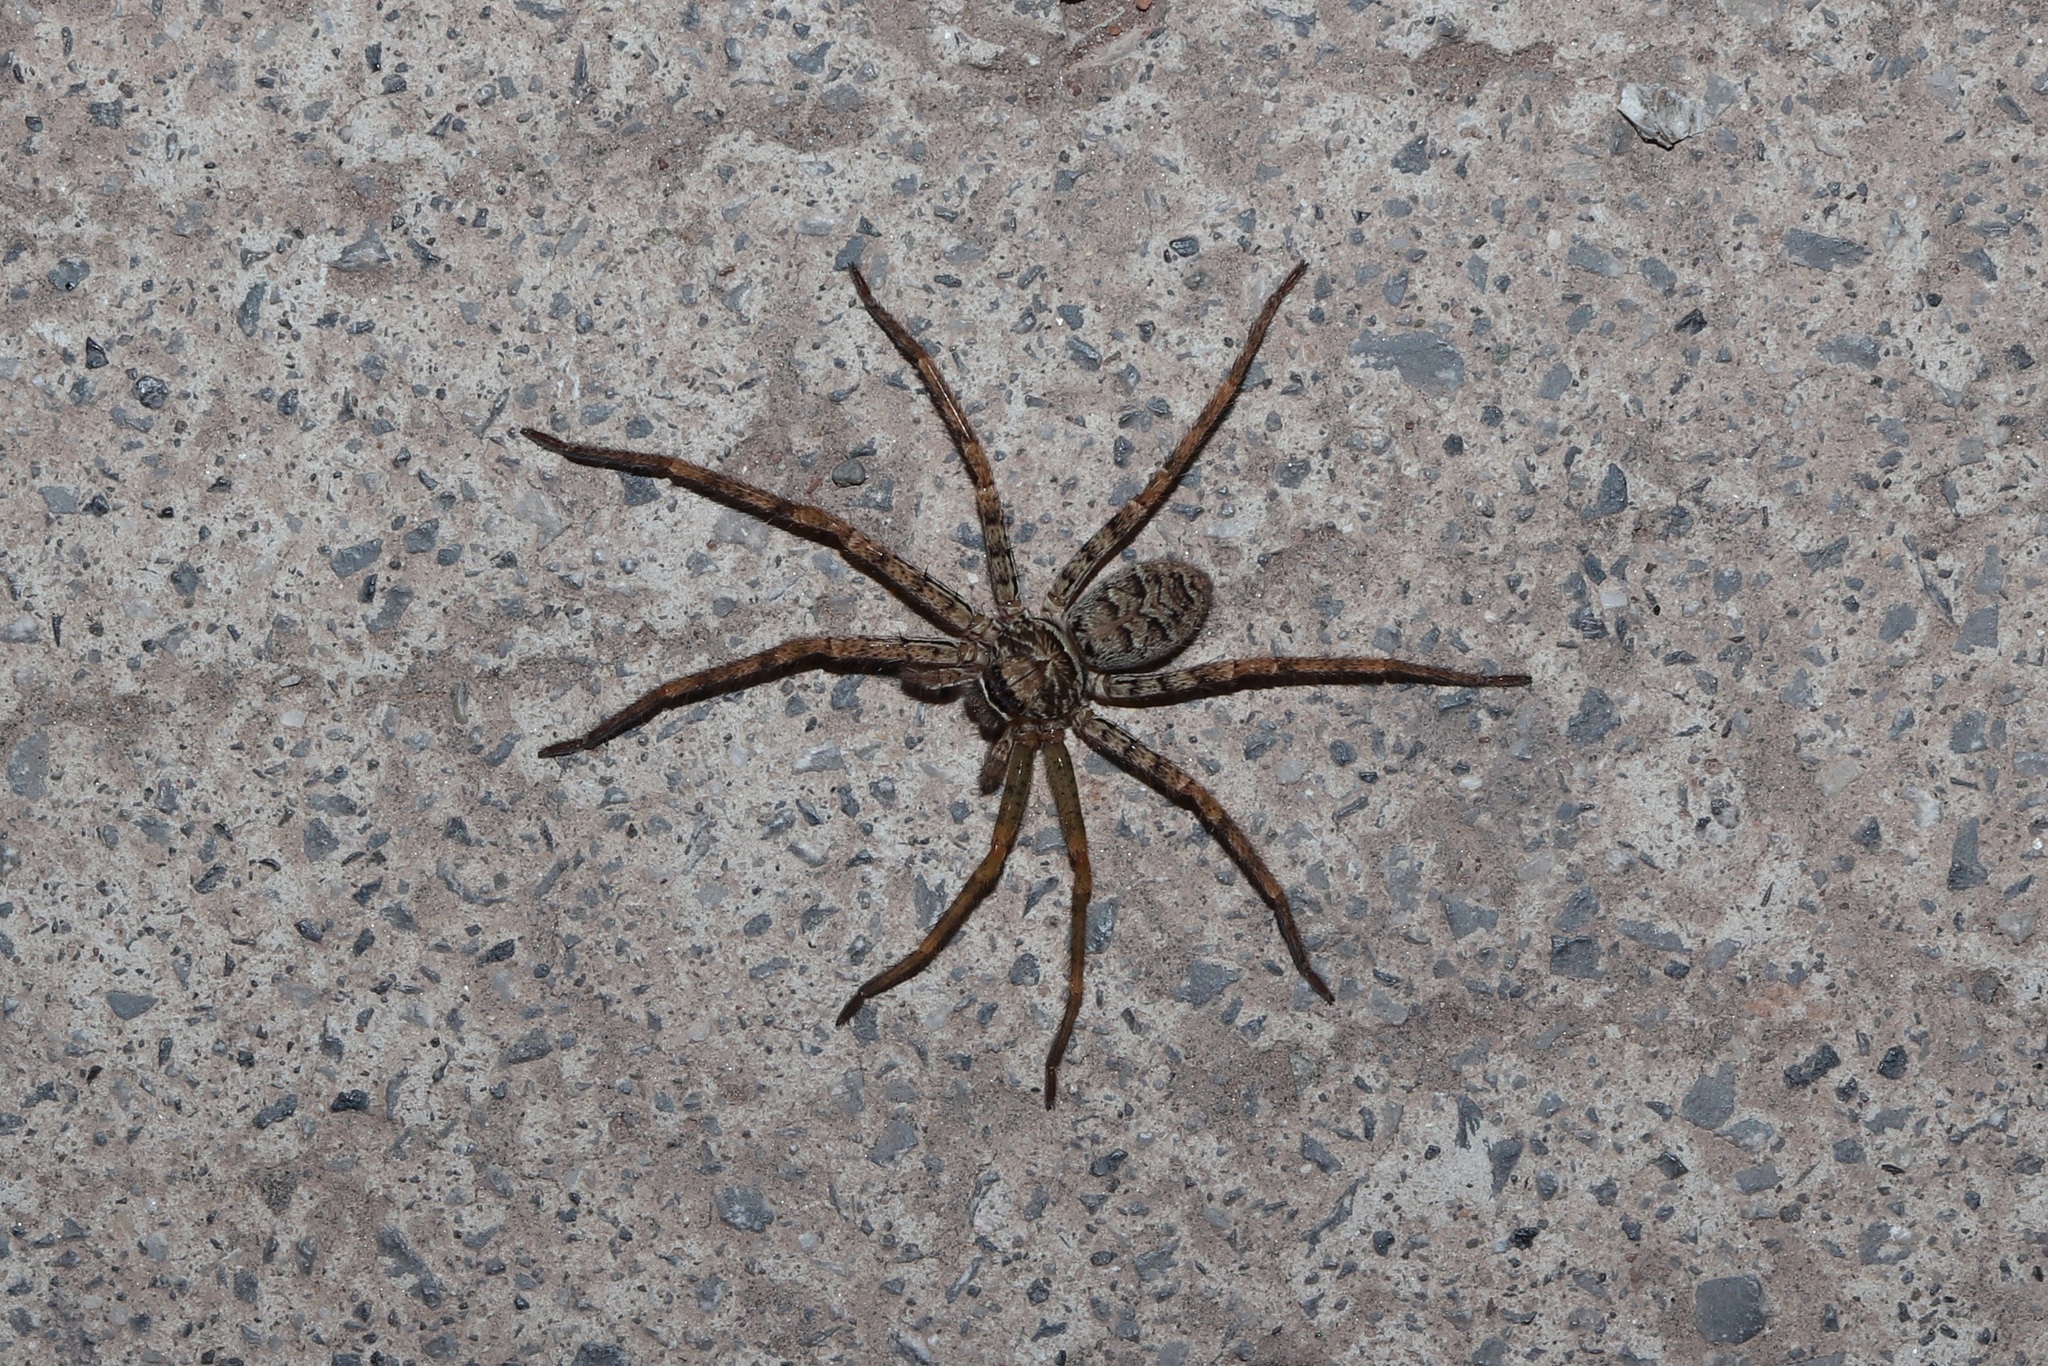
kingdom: Animalia
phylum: Arthropoda
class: Arachnida
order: Araneae
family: Sparassidae
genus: Heteropoda
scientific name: Heteropoda venatoria
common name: Huntsman spider
